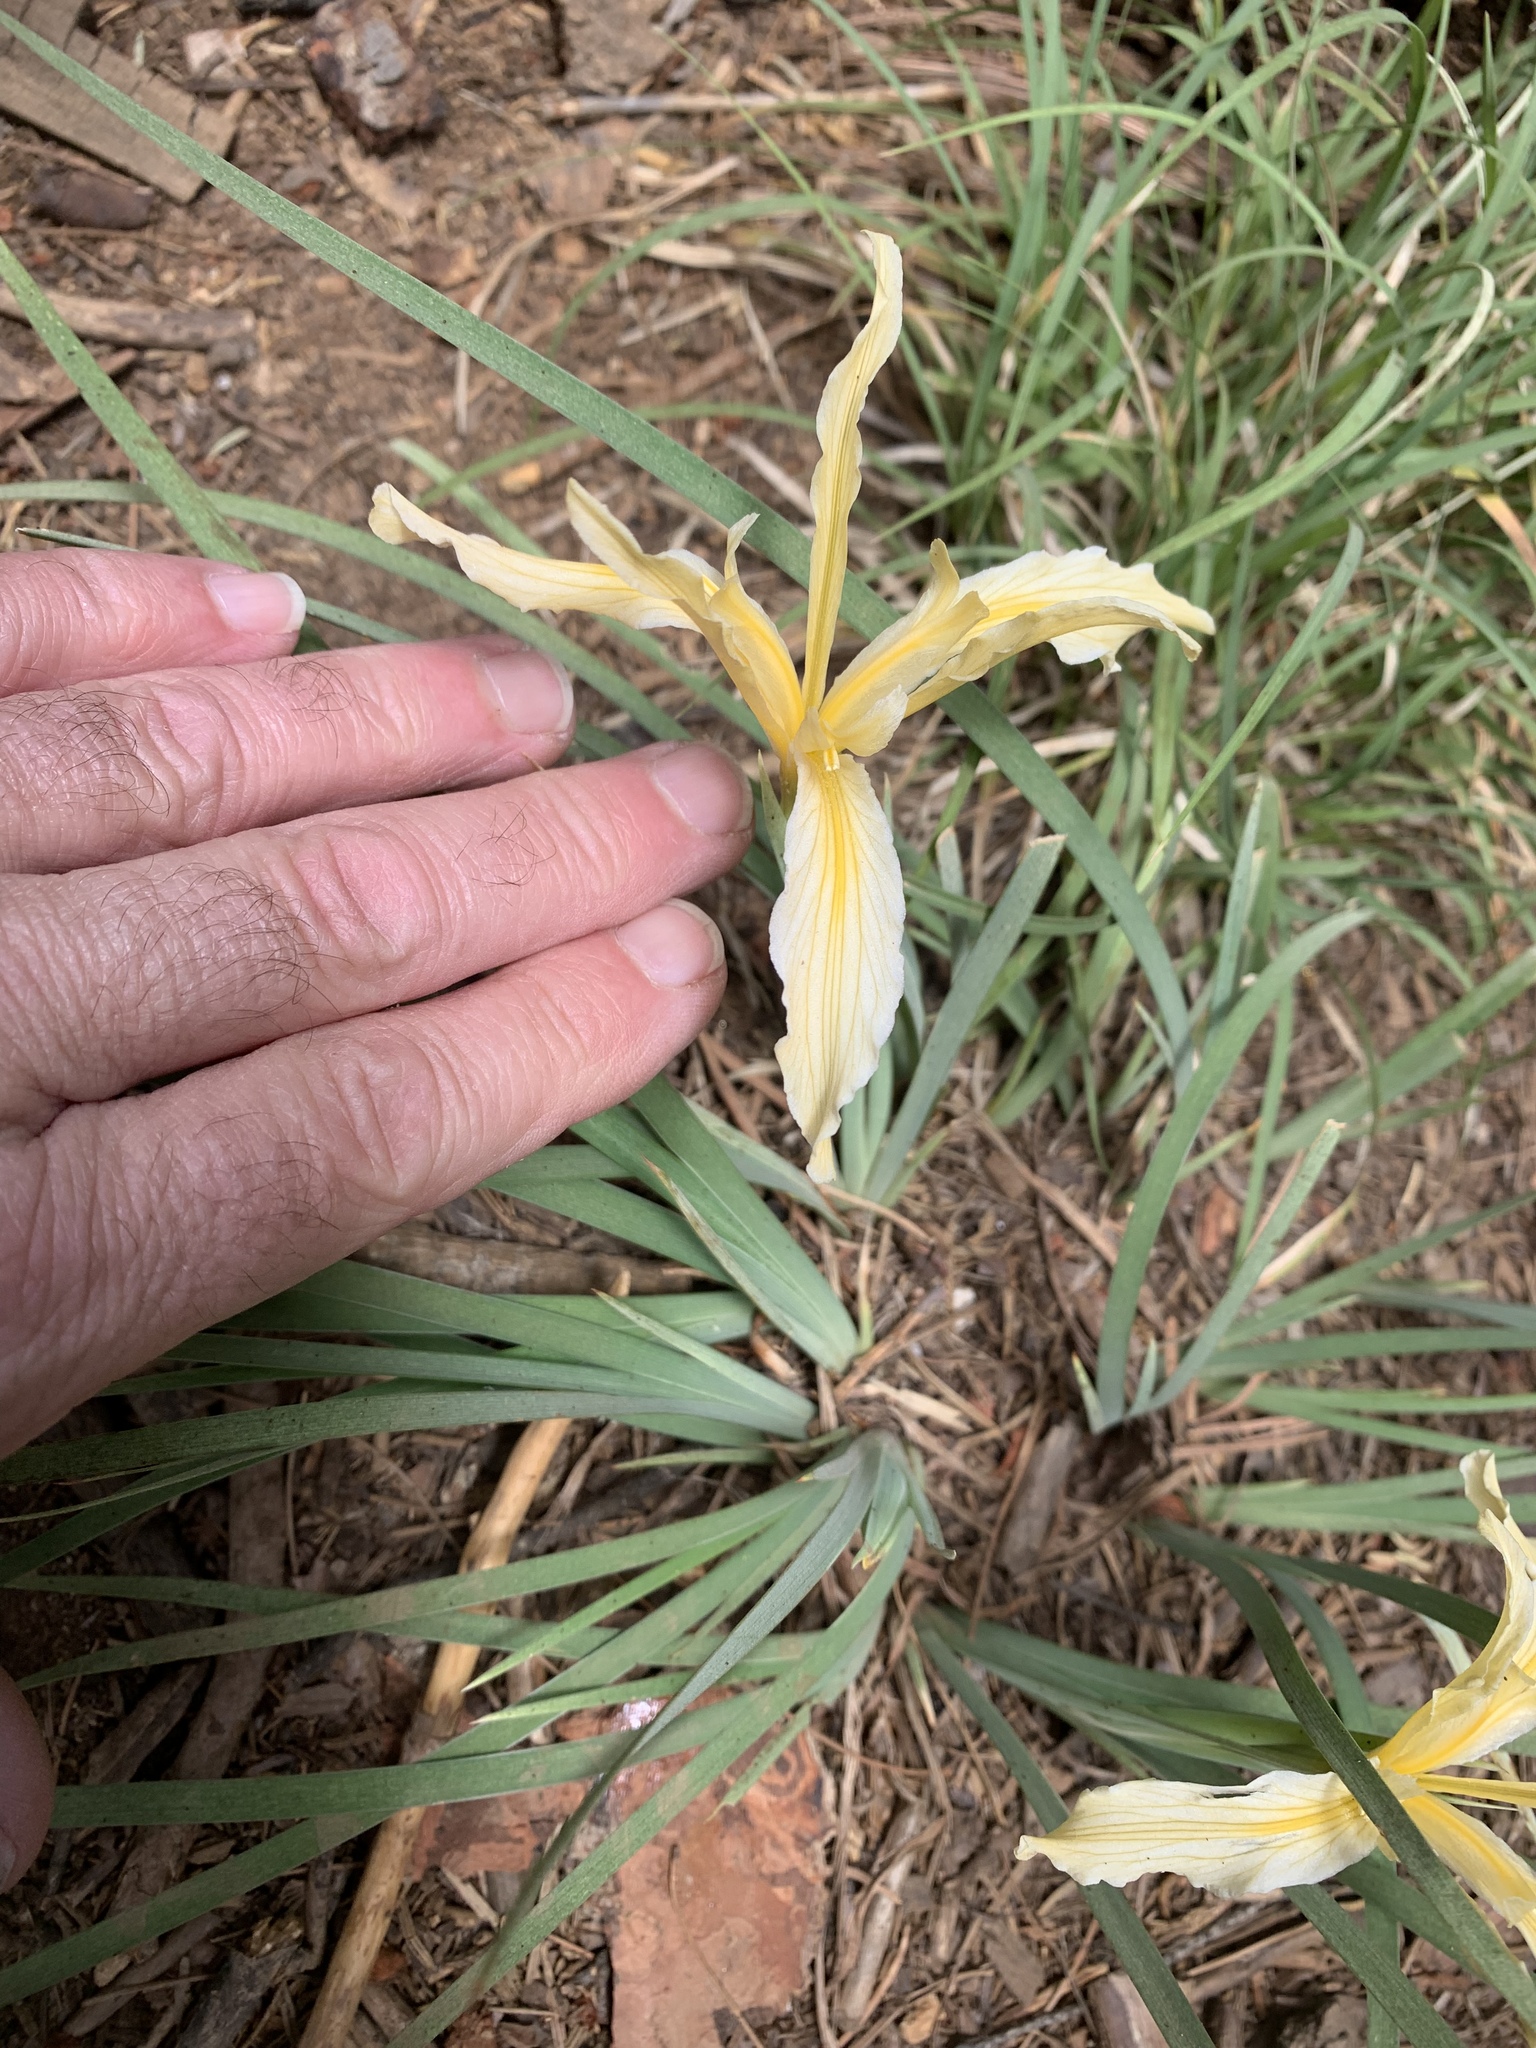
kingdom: Plantae
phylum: Tracheophyta
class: Liliopsida
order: Asparagales
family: Iridaceae
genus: Iris
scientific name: Iris hartwegii
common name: Sierra iris
